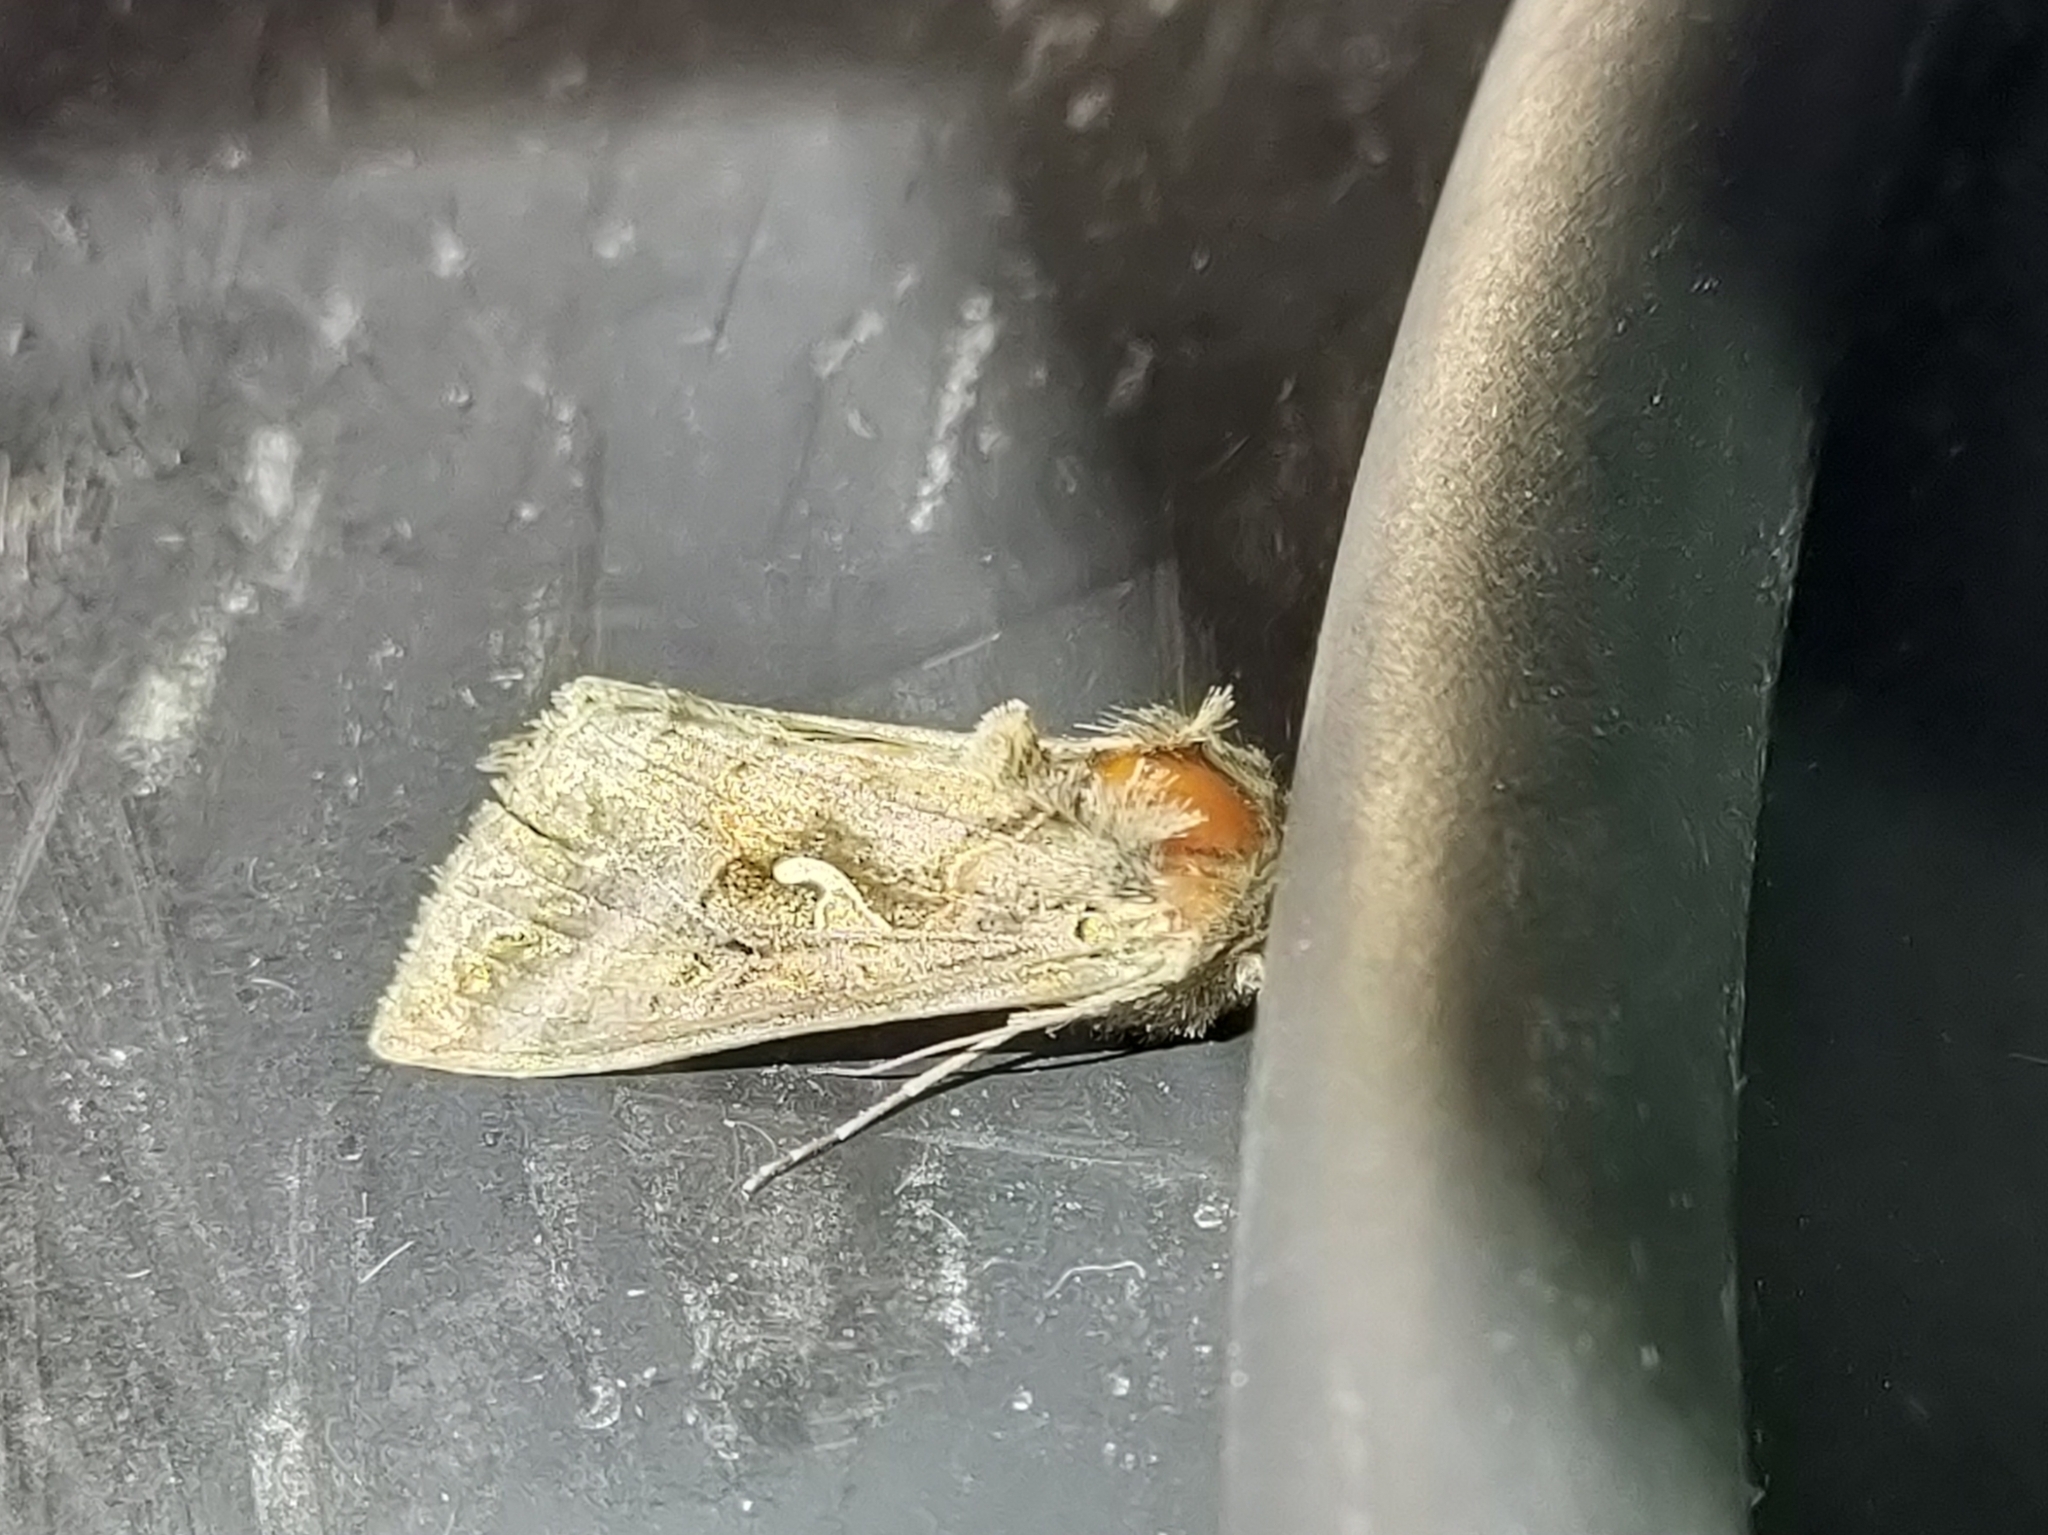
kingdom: Animalia
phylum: Arthropoda
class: Insecta
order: Lepidoptera
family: Noctuidae
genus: Autographa
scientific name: Autographa gamma
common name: Silver y
